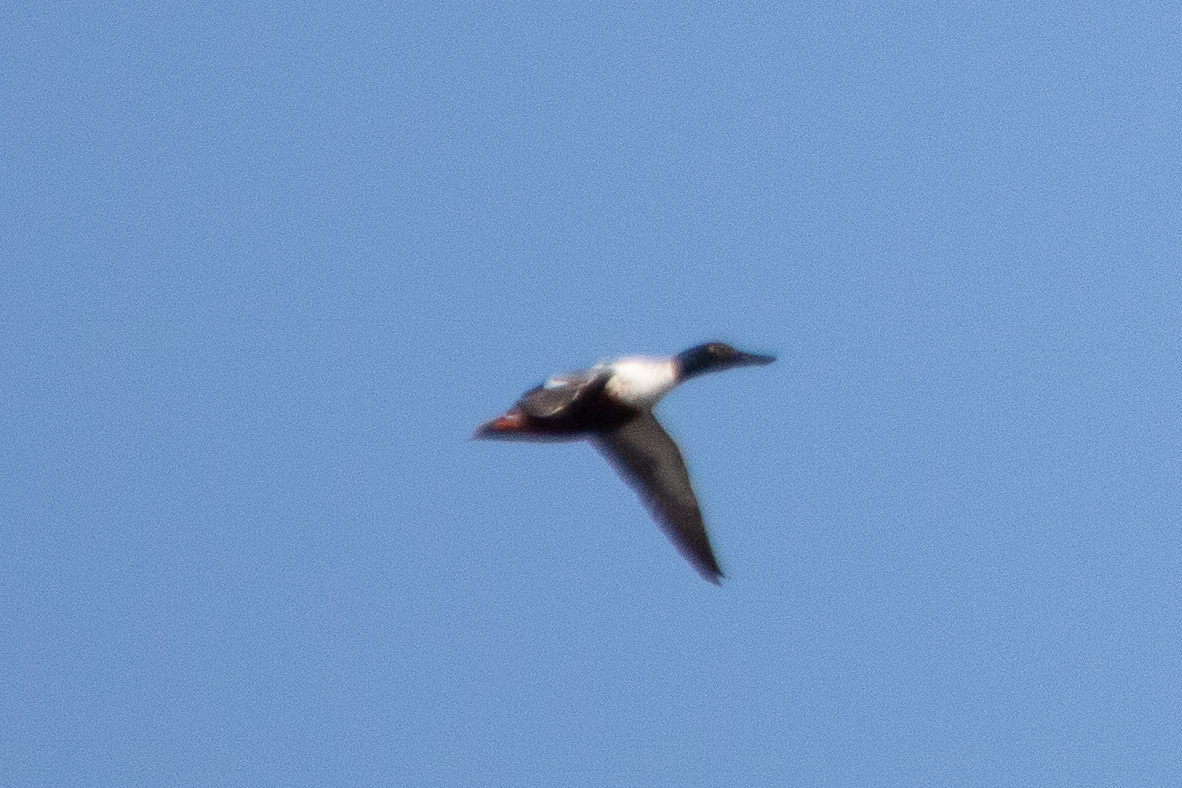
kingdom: Animalia
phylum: Chordata
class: Aves
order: Anseriformes
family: Anatidae
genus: Spatula
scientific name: Spatula clypeata
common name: Northern shoveler
